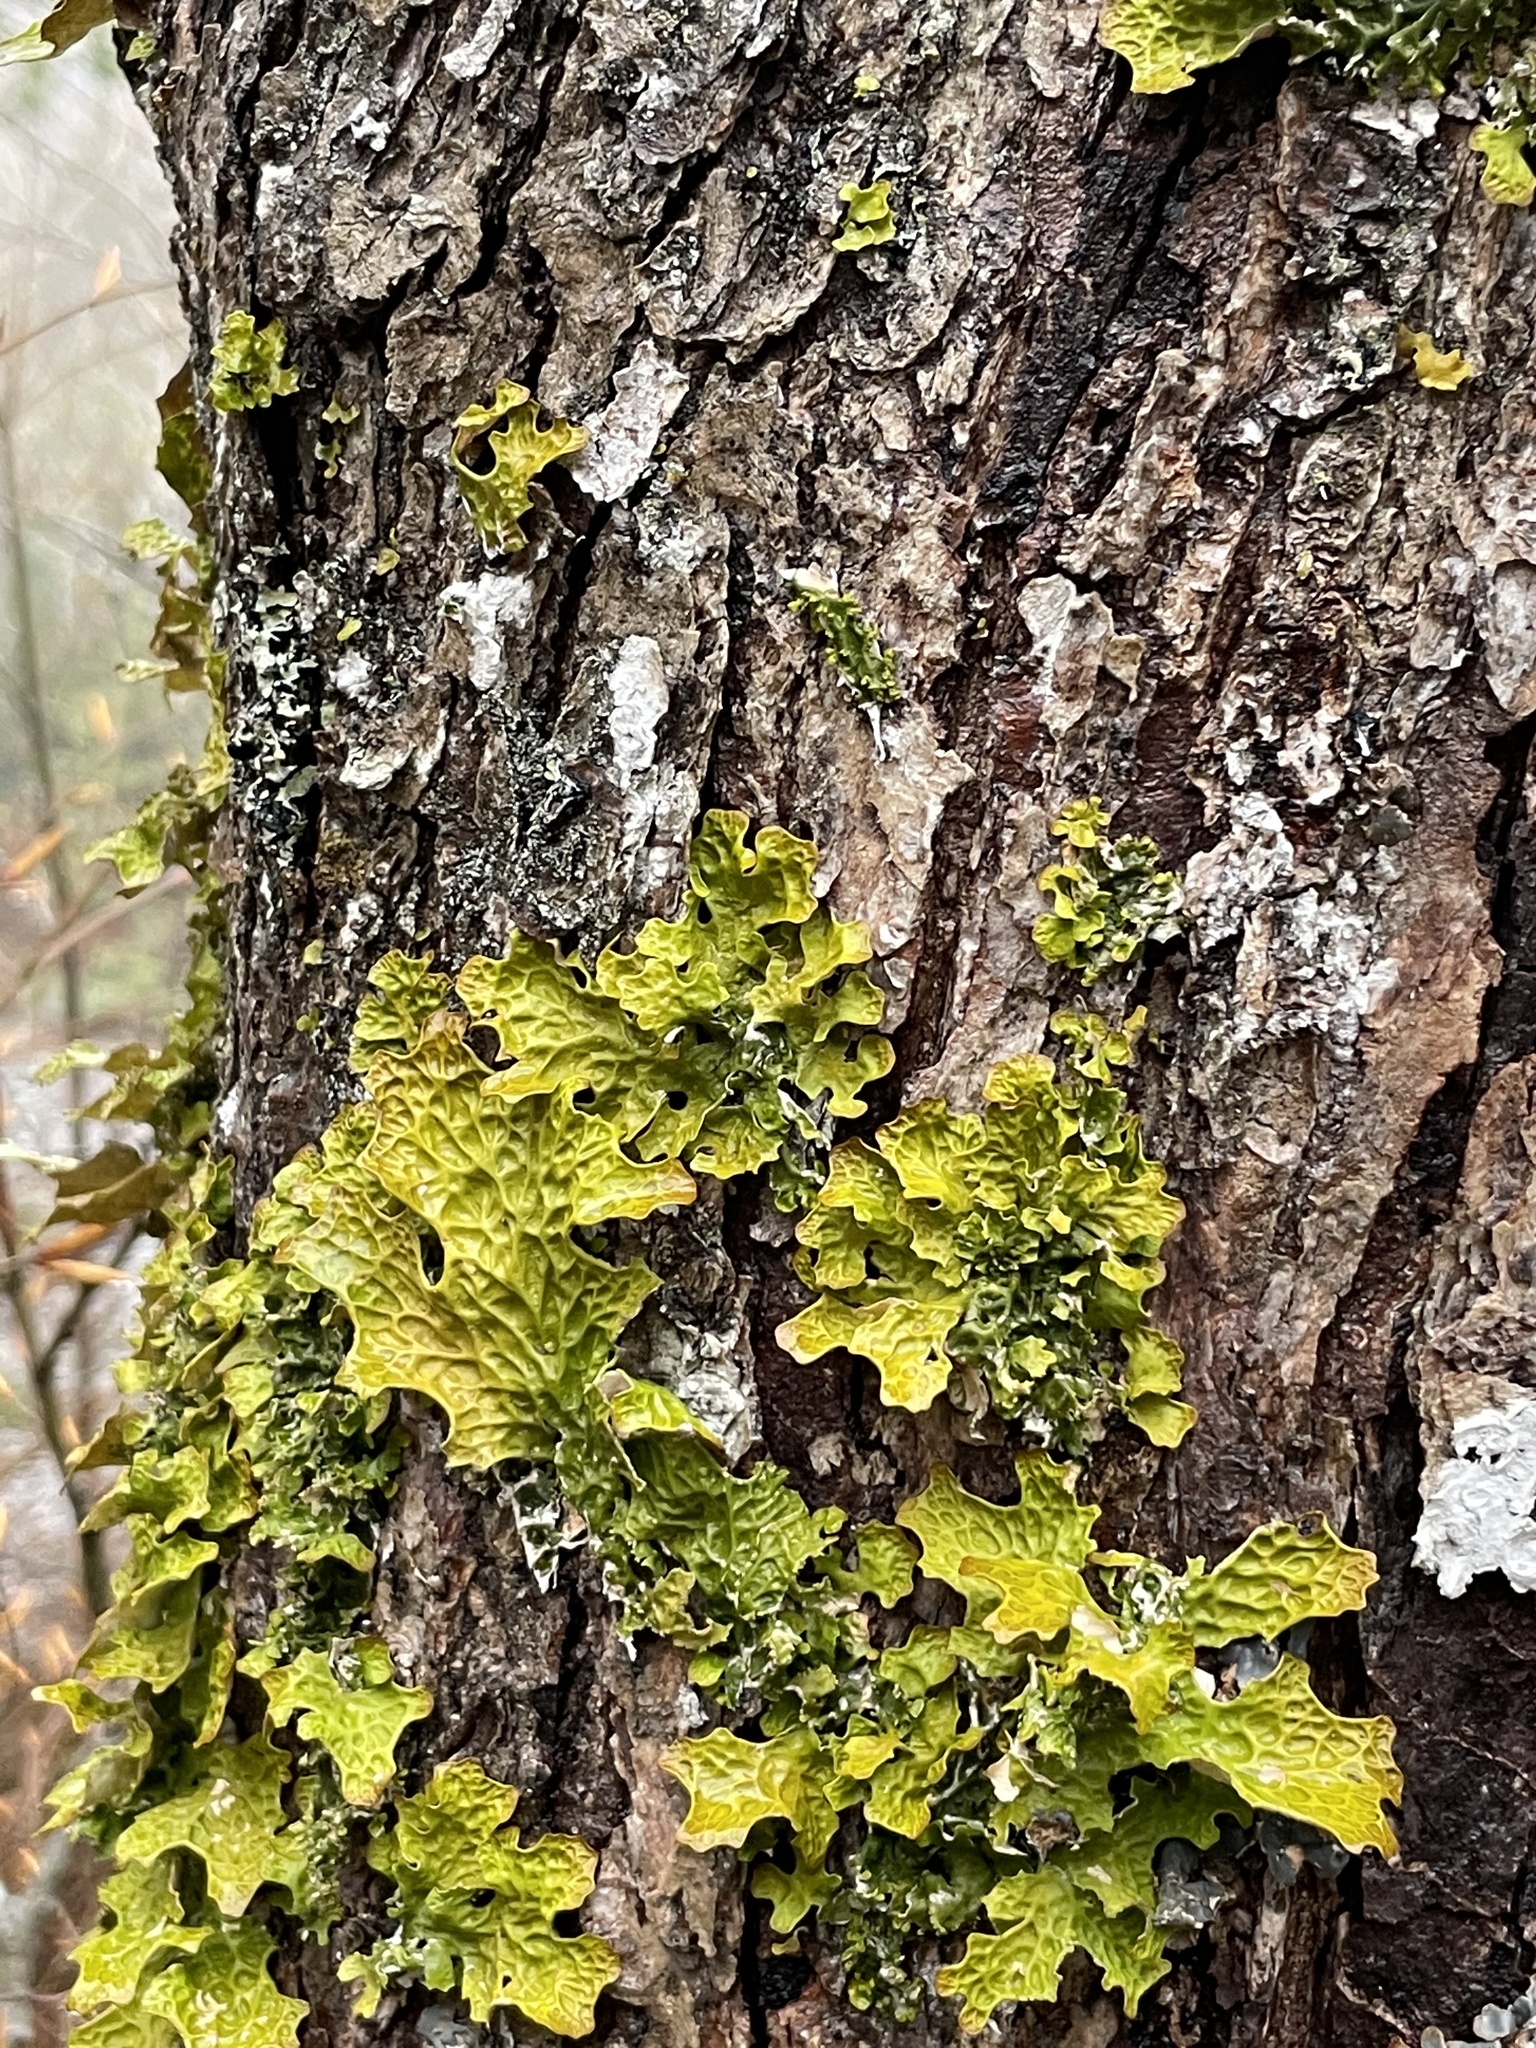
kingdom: Fungi
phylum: Ascomycota
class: Lecanoromycetes
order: Peltigerales
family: Lobariaceae
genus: Lobaria
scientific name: Lobaria pulmonaria
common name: Lungwort
